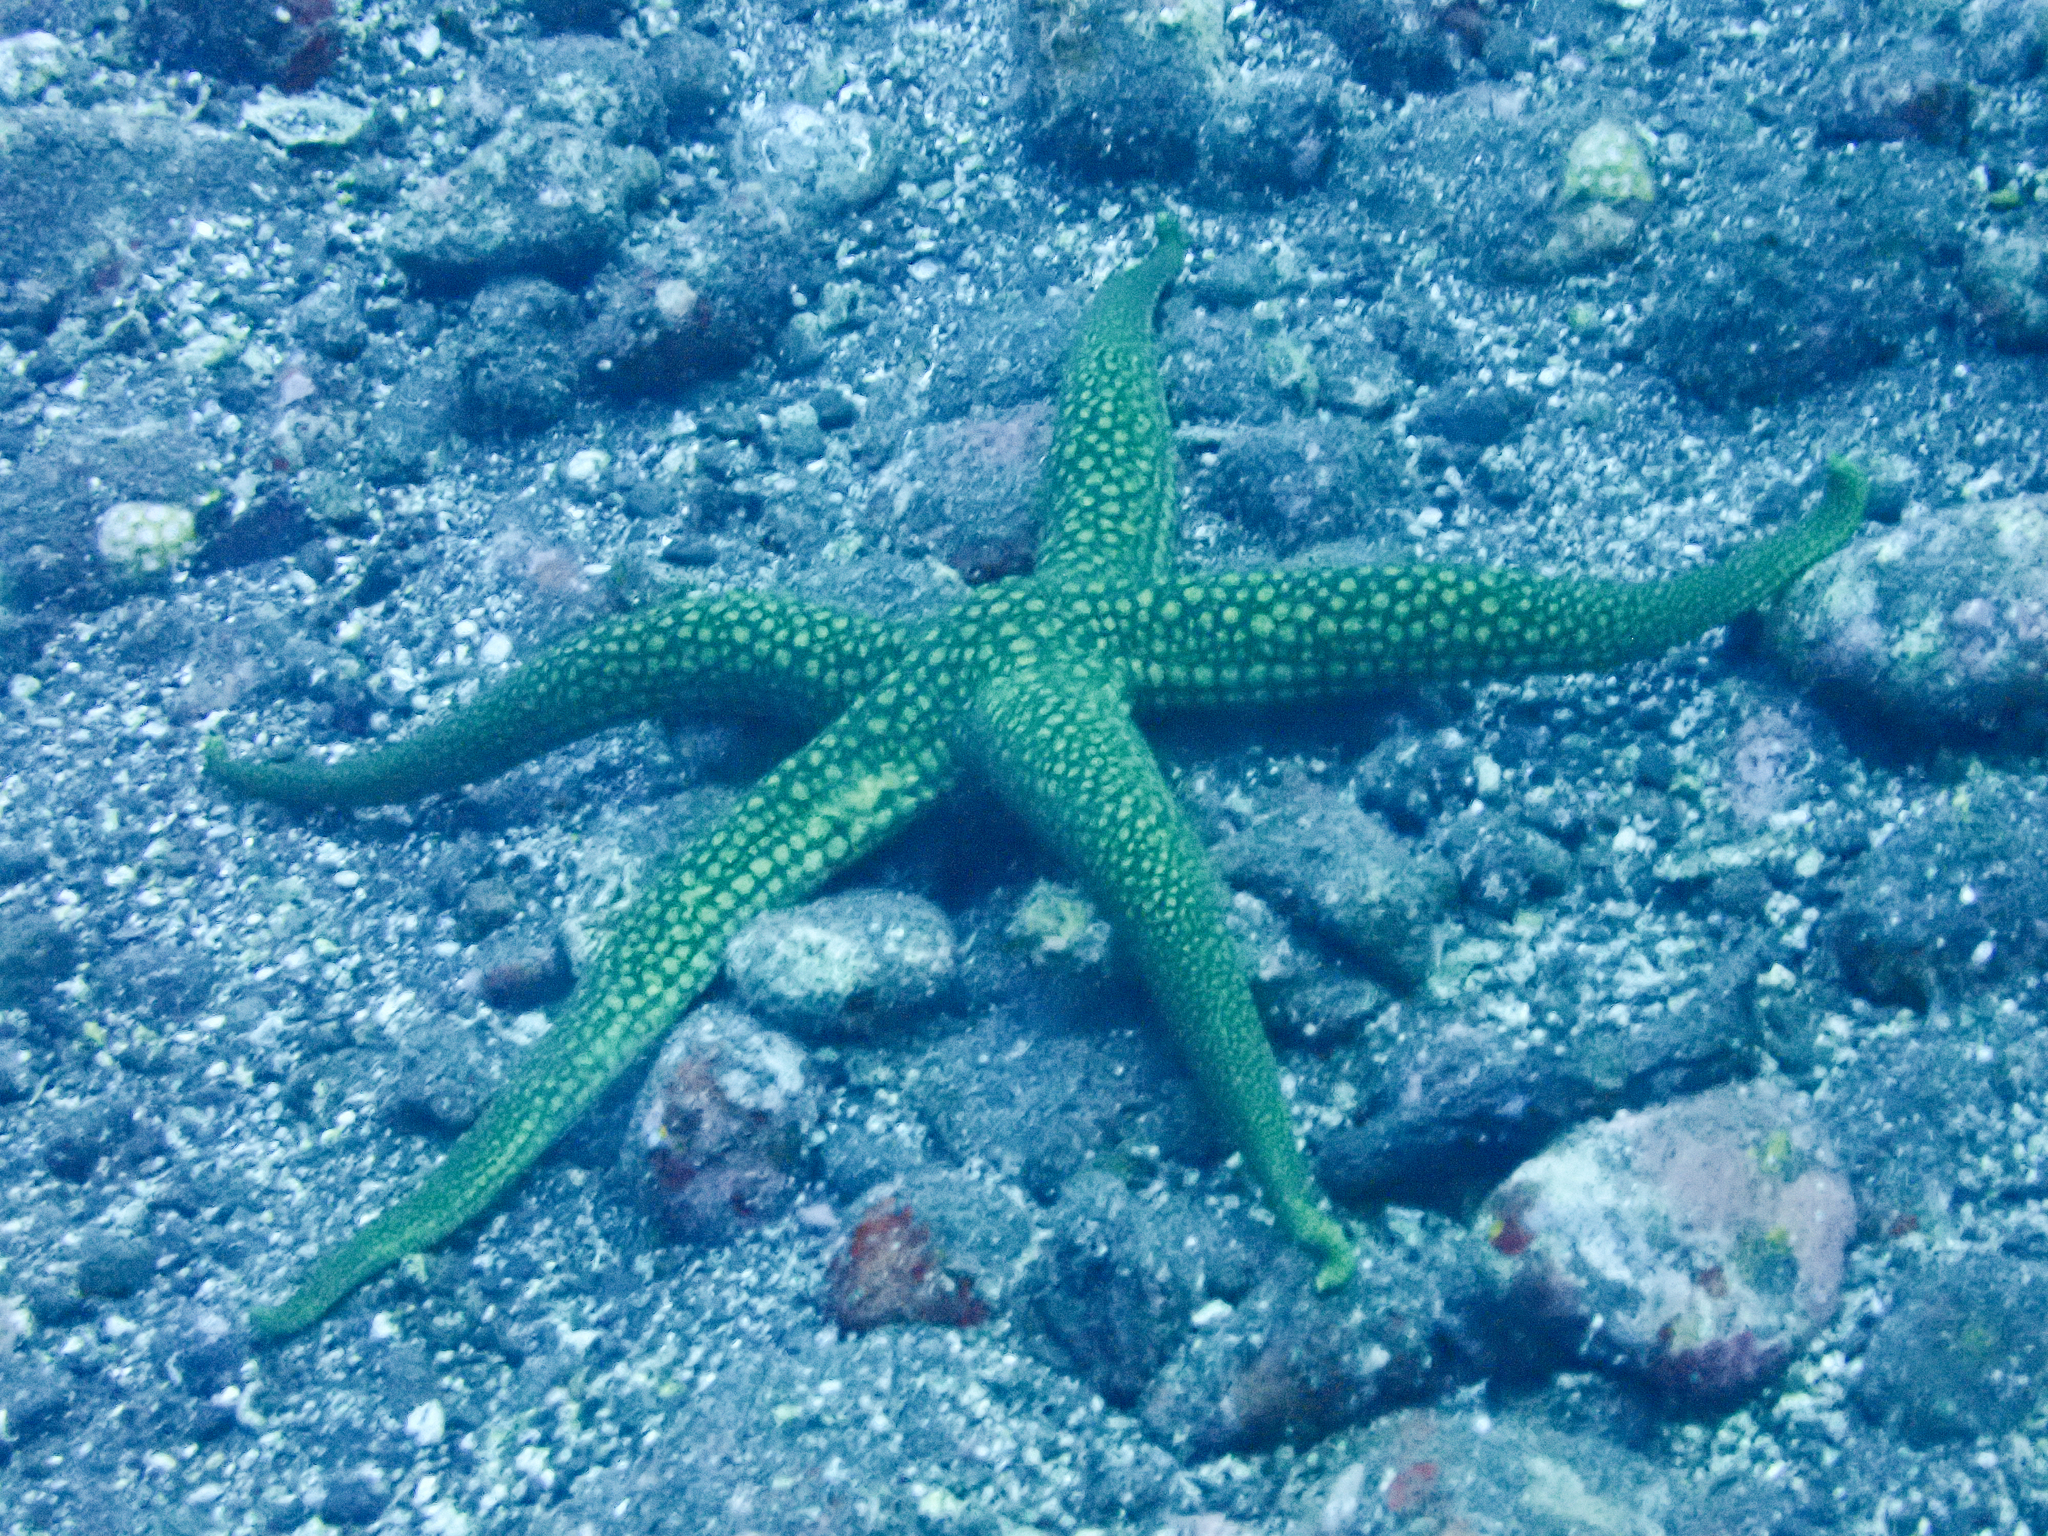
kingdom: Animalia
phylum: Echinodermata
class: Asteroidea
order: Valvatida
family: Ophidiasteridae
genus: Nardoa
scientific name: Nardoa novaecaledoniae
